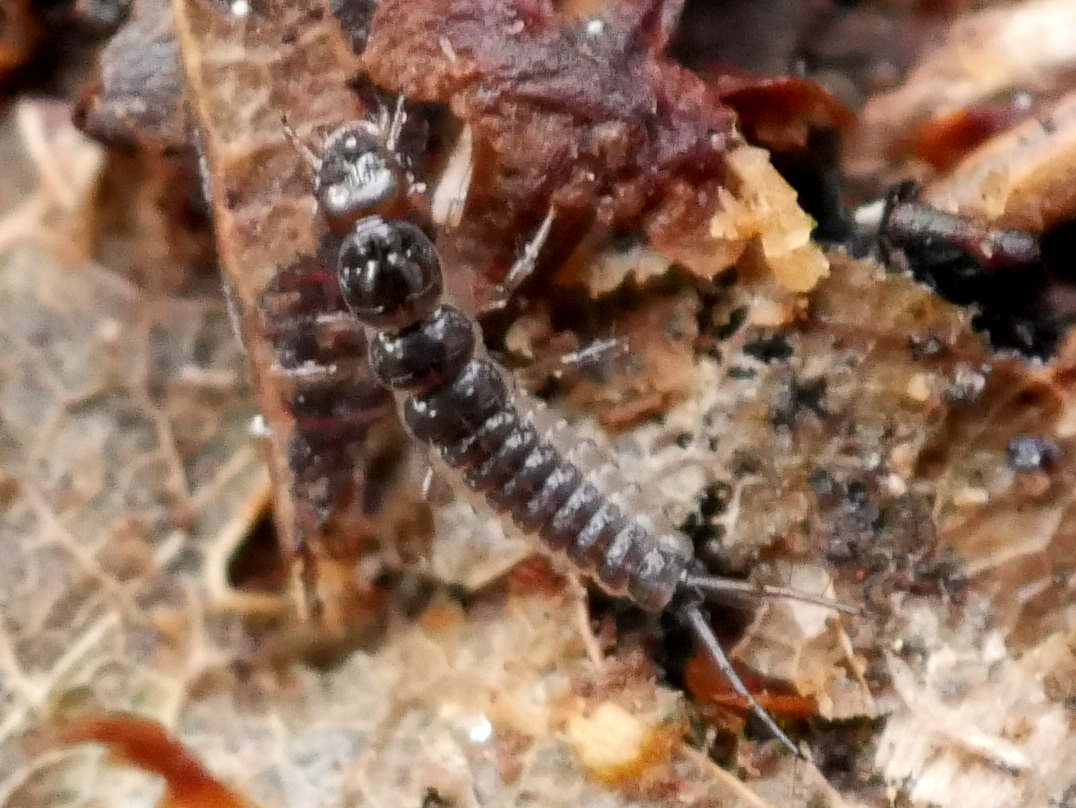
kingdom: Animalia
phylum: Arthropoda
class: Insecta
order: Coleoptera
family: Carabidae
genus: Nebria
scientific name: Nebria
